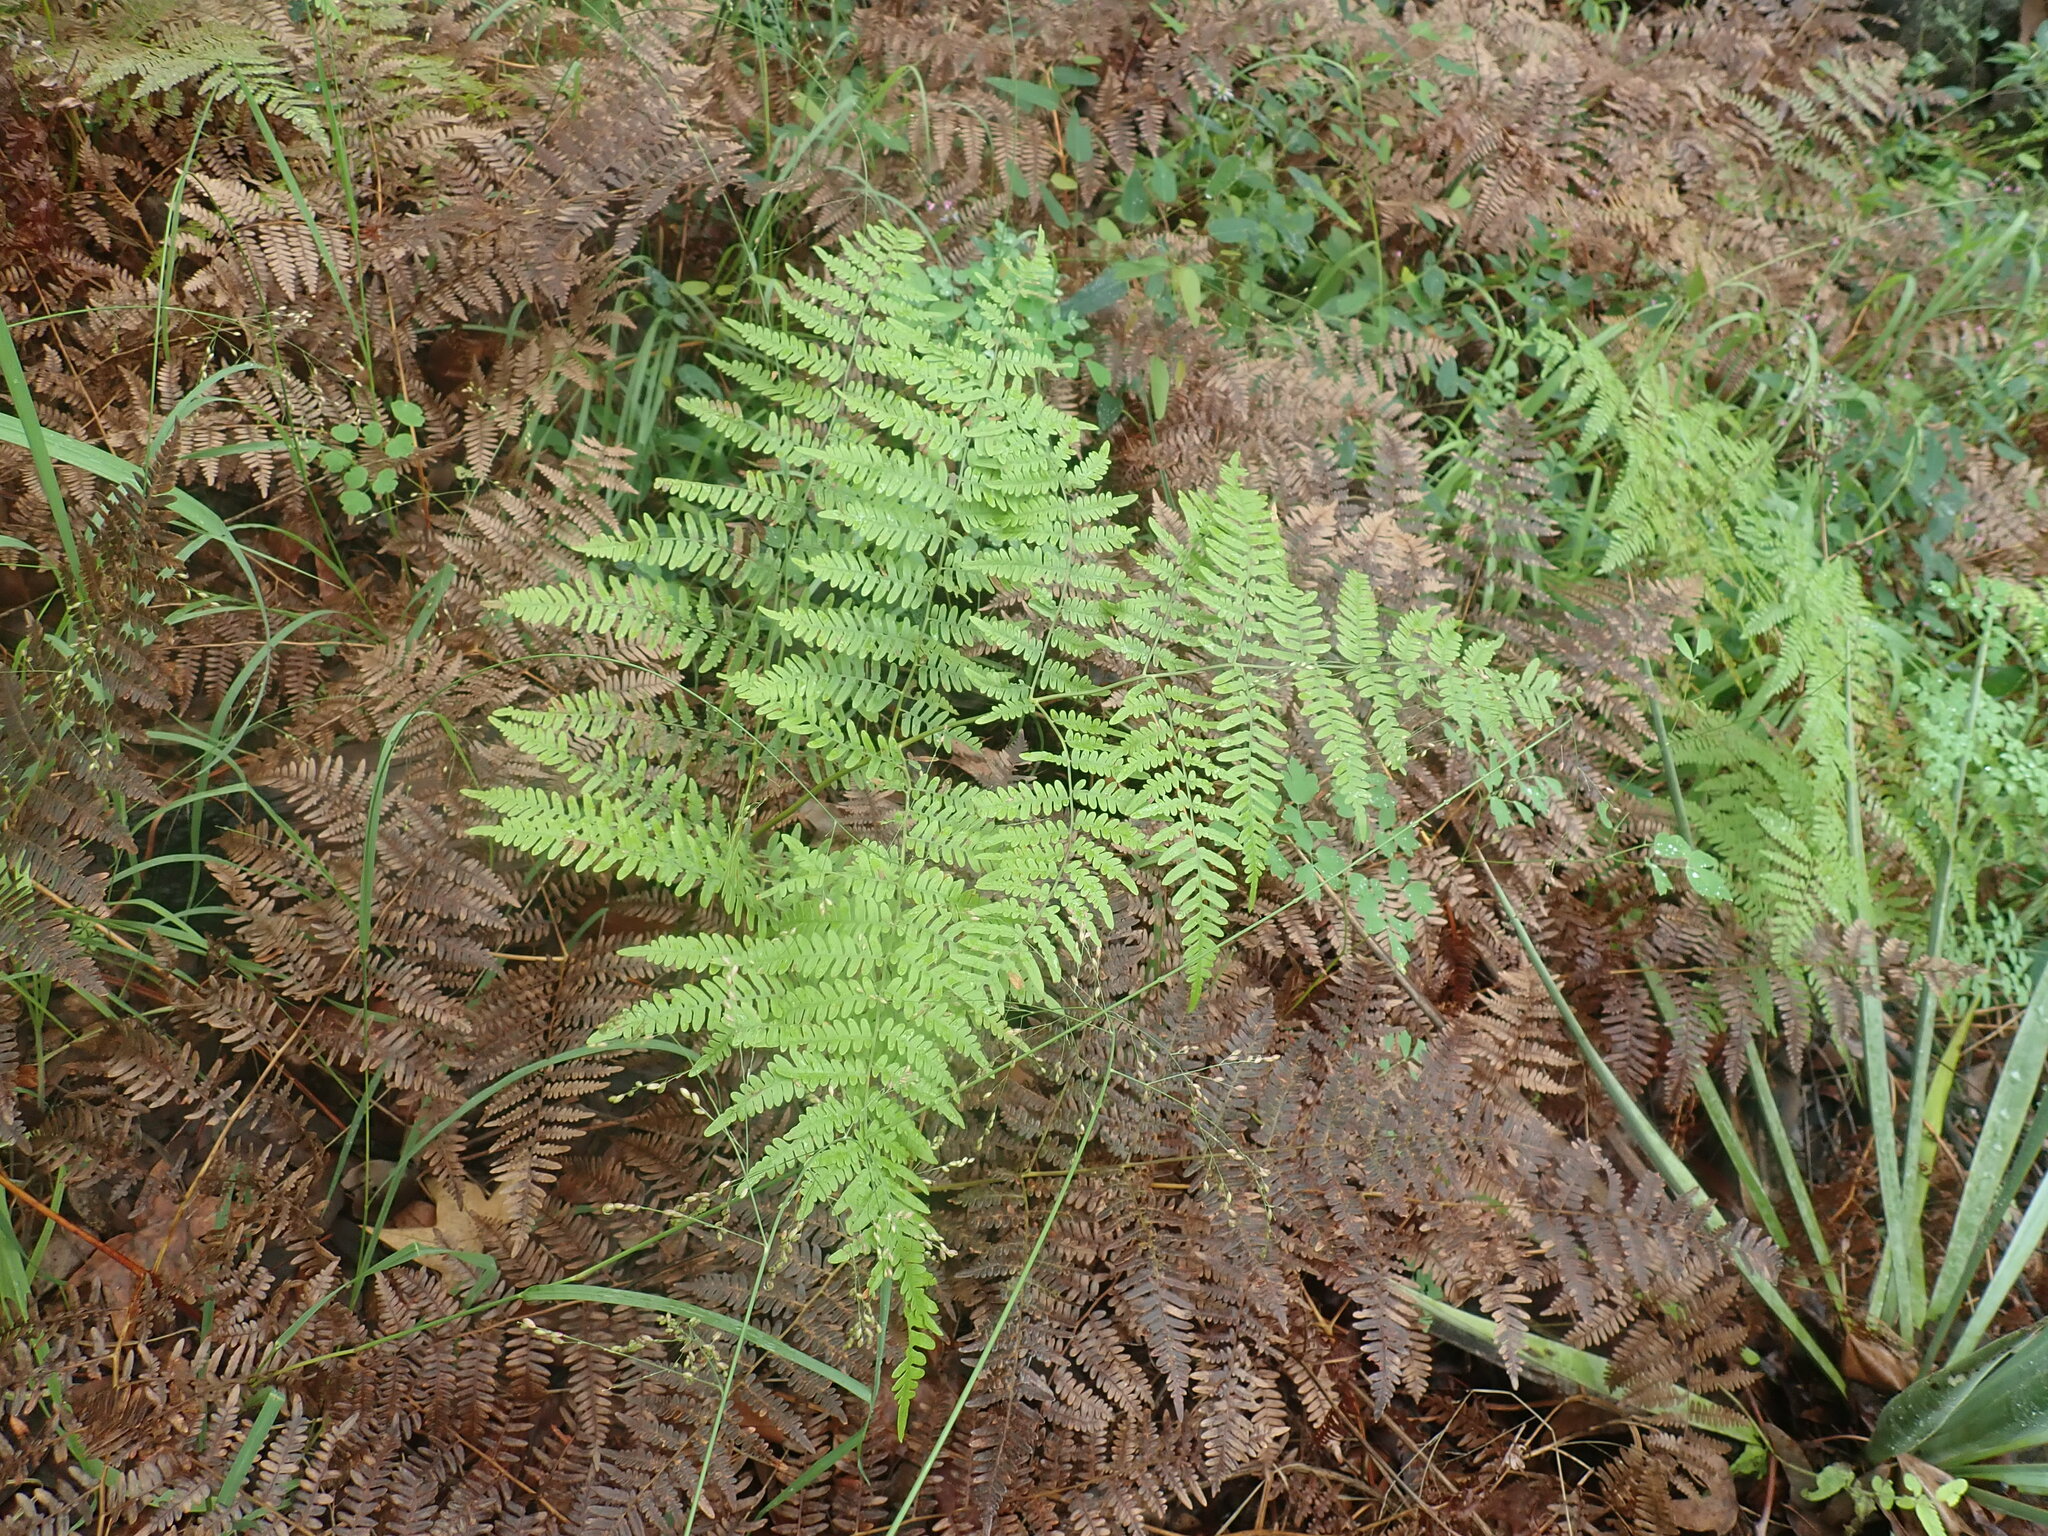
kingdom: Plantae
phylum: Tracheophyta
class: Polypodiopsida
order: Polypodiales
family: Dennstaedtiaceae
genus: Pteridium
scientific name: Pteridium aquilinum
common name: Bracken
